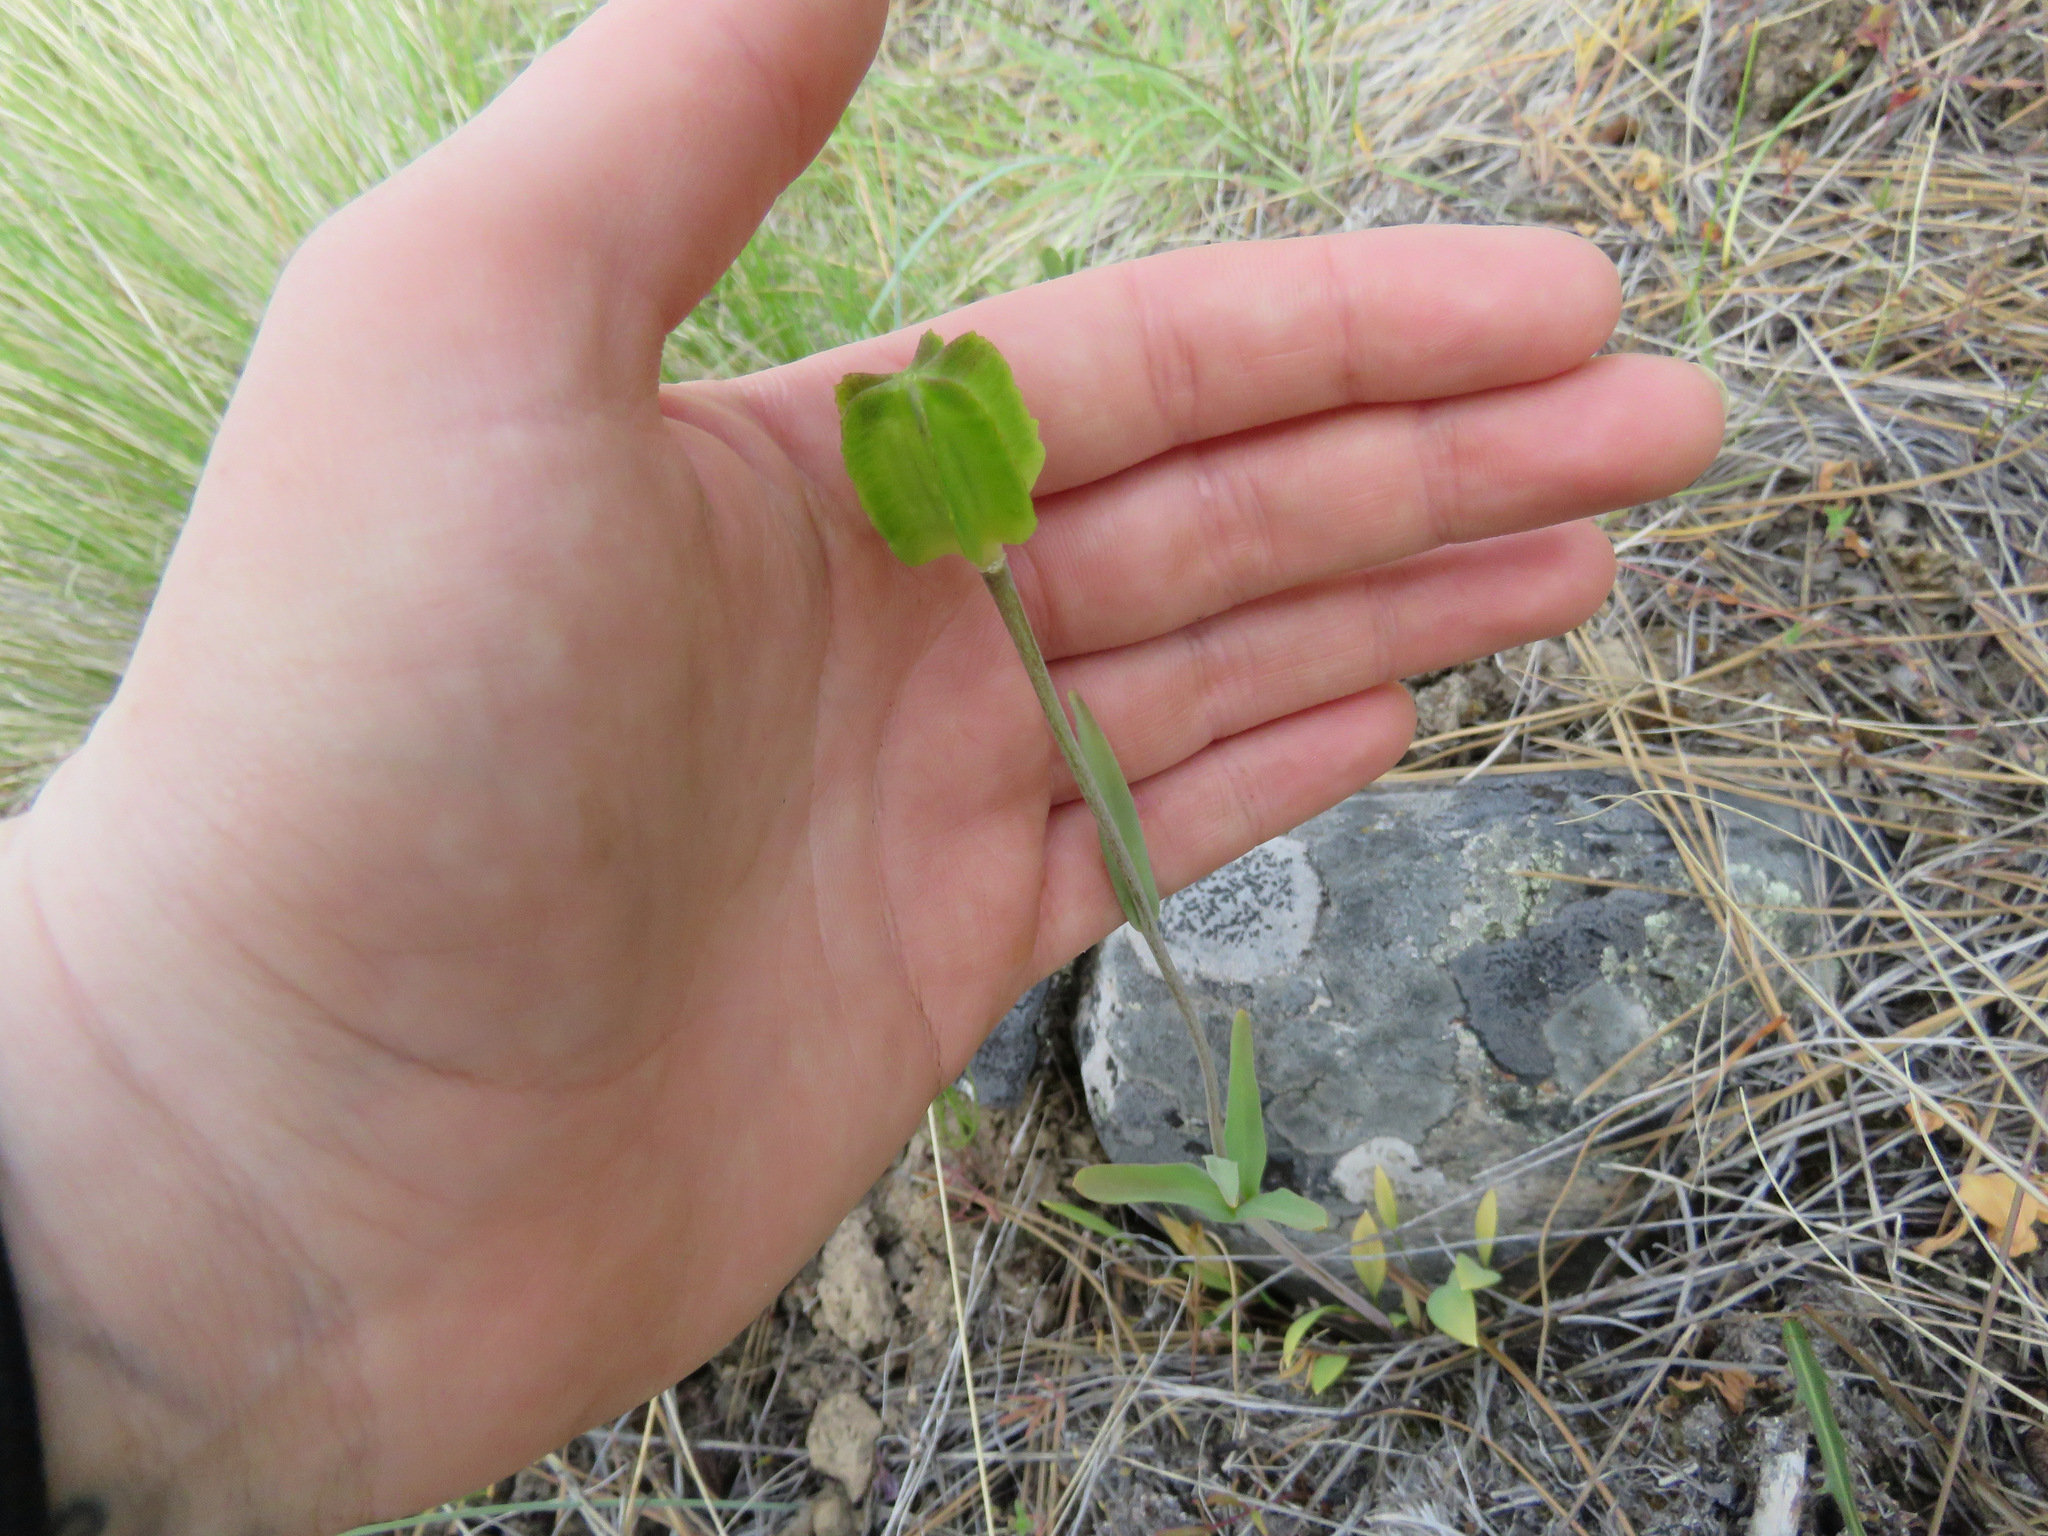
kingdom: Plantae
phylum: Tracheophyta
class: Liliopsida
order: Liliales
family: Liliaceae
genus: Fritillaria
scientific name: Fritillaria affinis
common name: Ojai fritillary
